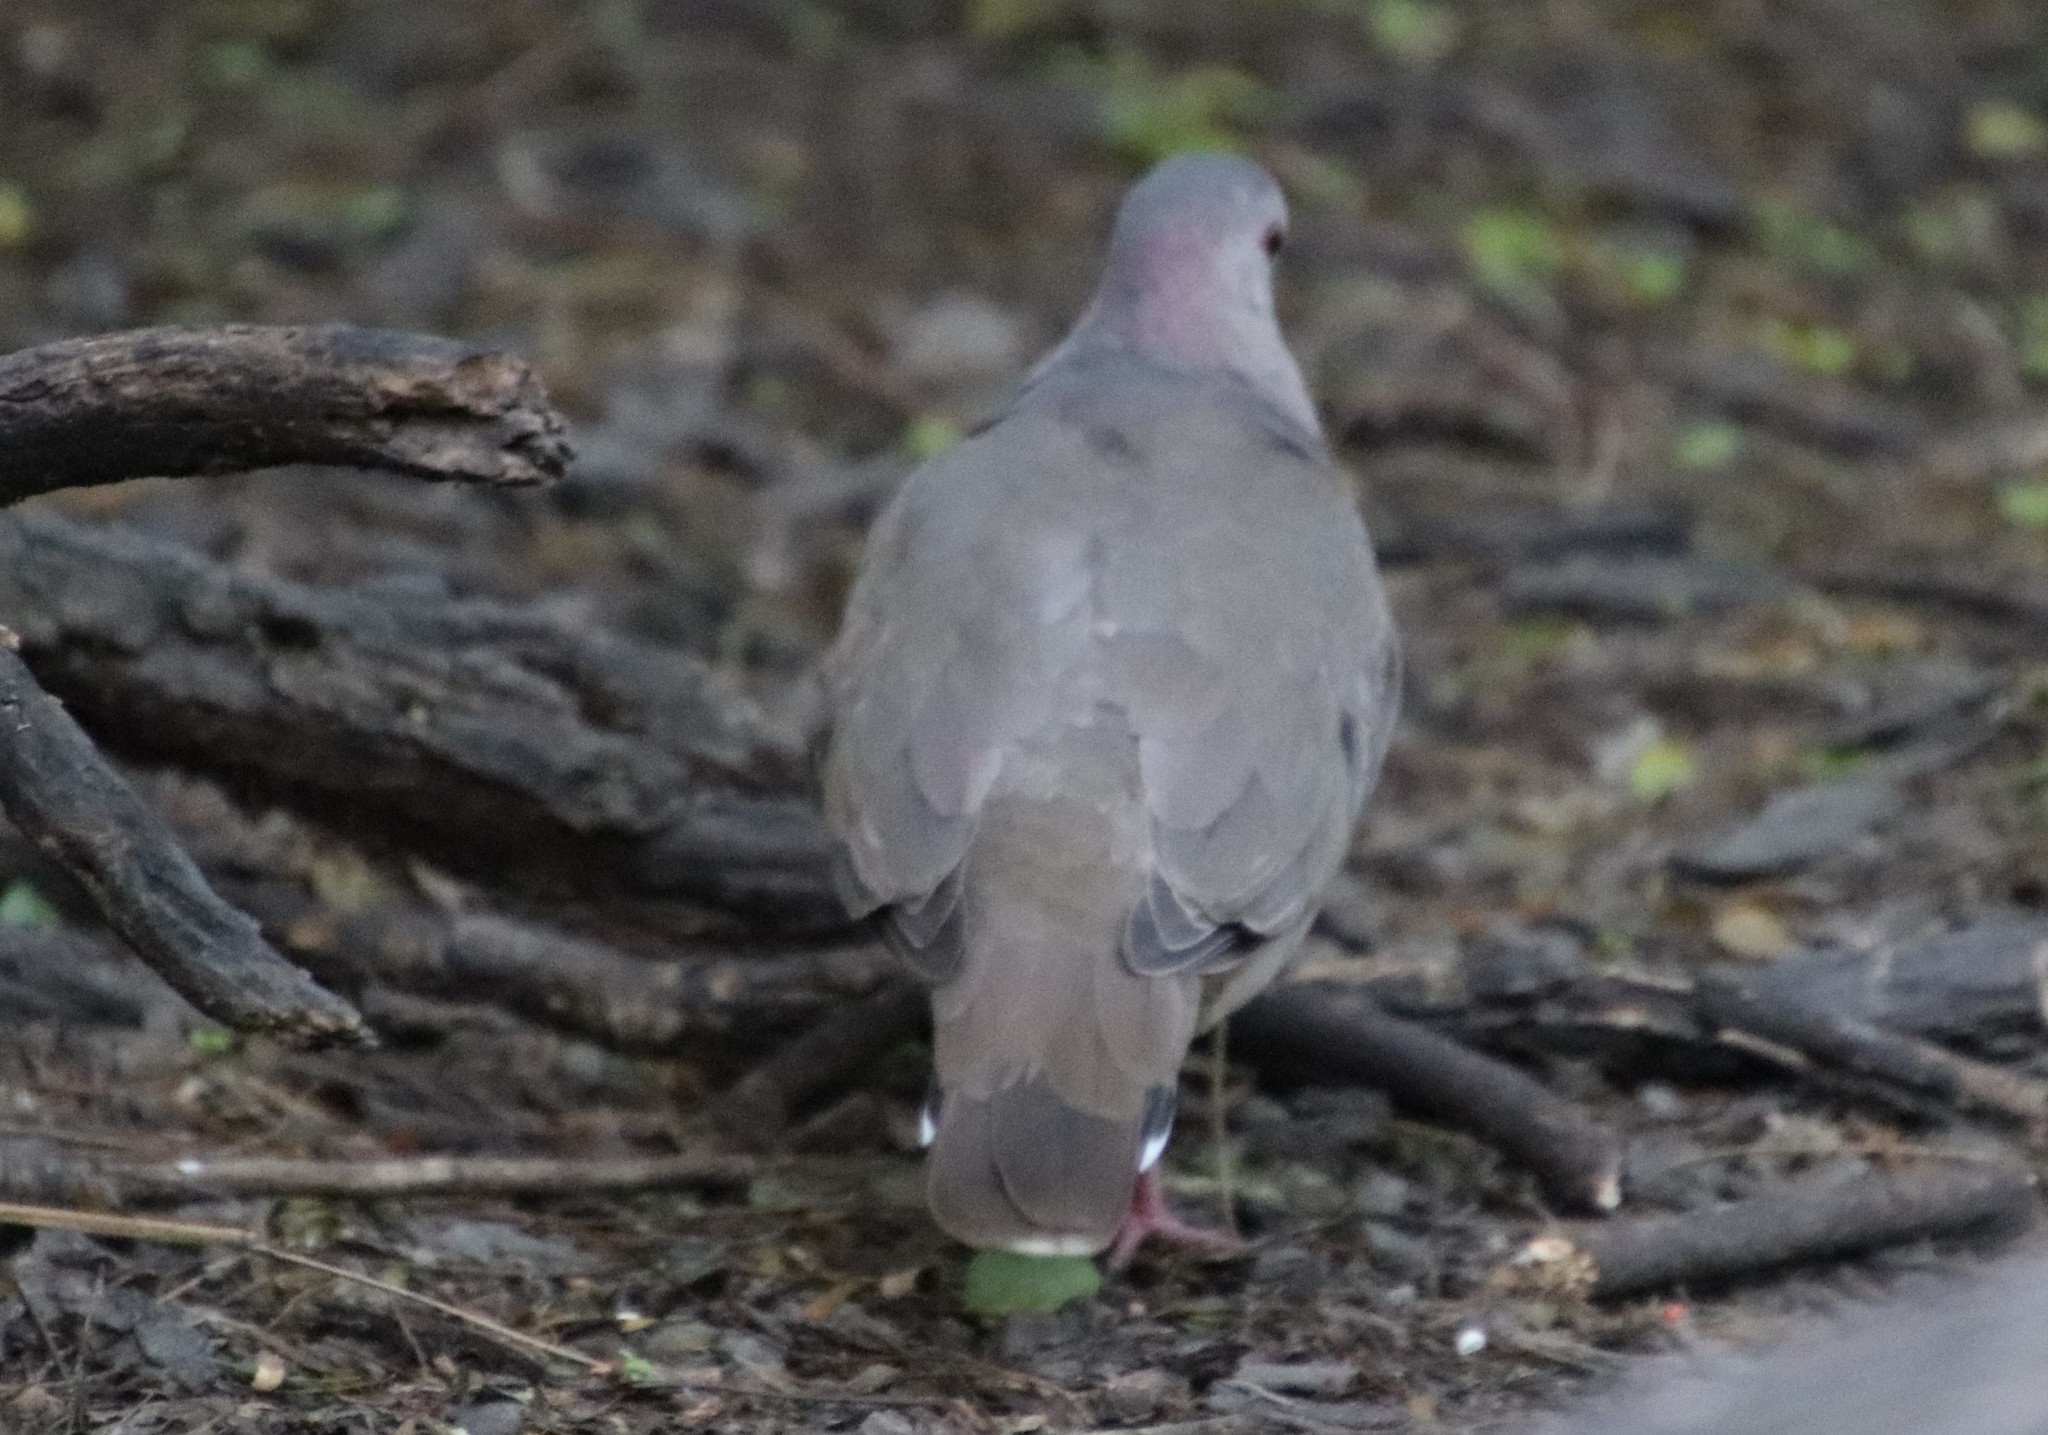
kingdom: Animalia
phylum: Chordata
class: Aves
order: Columbiformes
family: Columbidae
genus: Leptotila
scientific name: Leptotila verreauxi
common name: White-tipped dove
